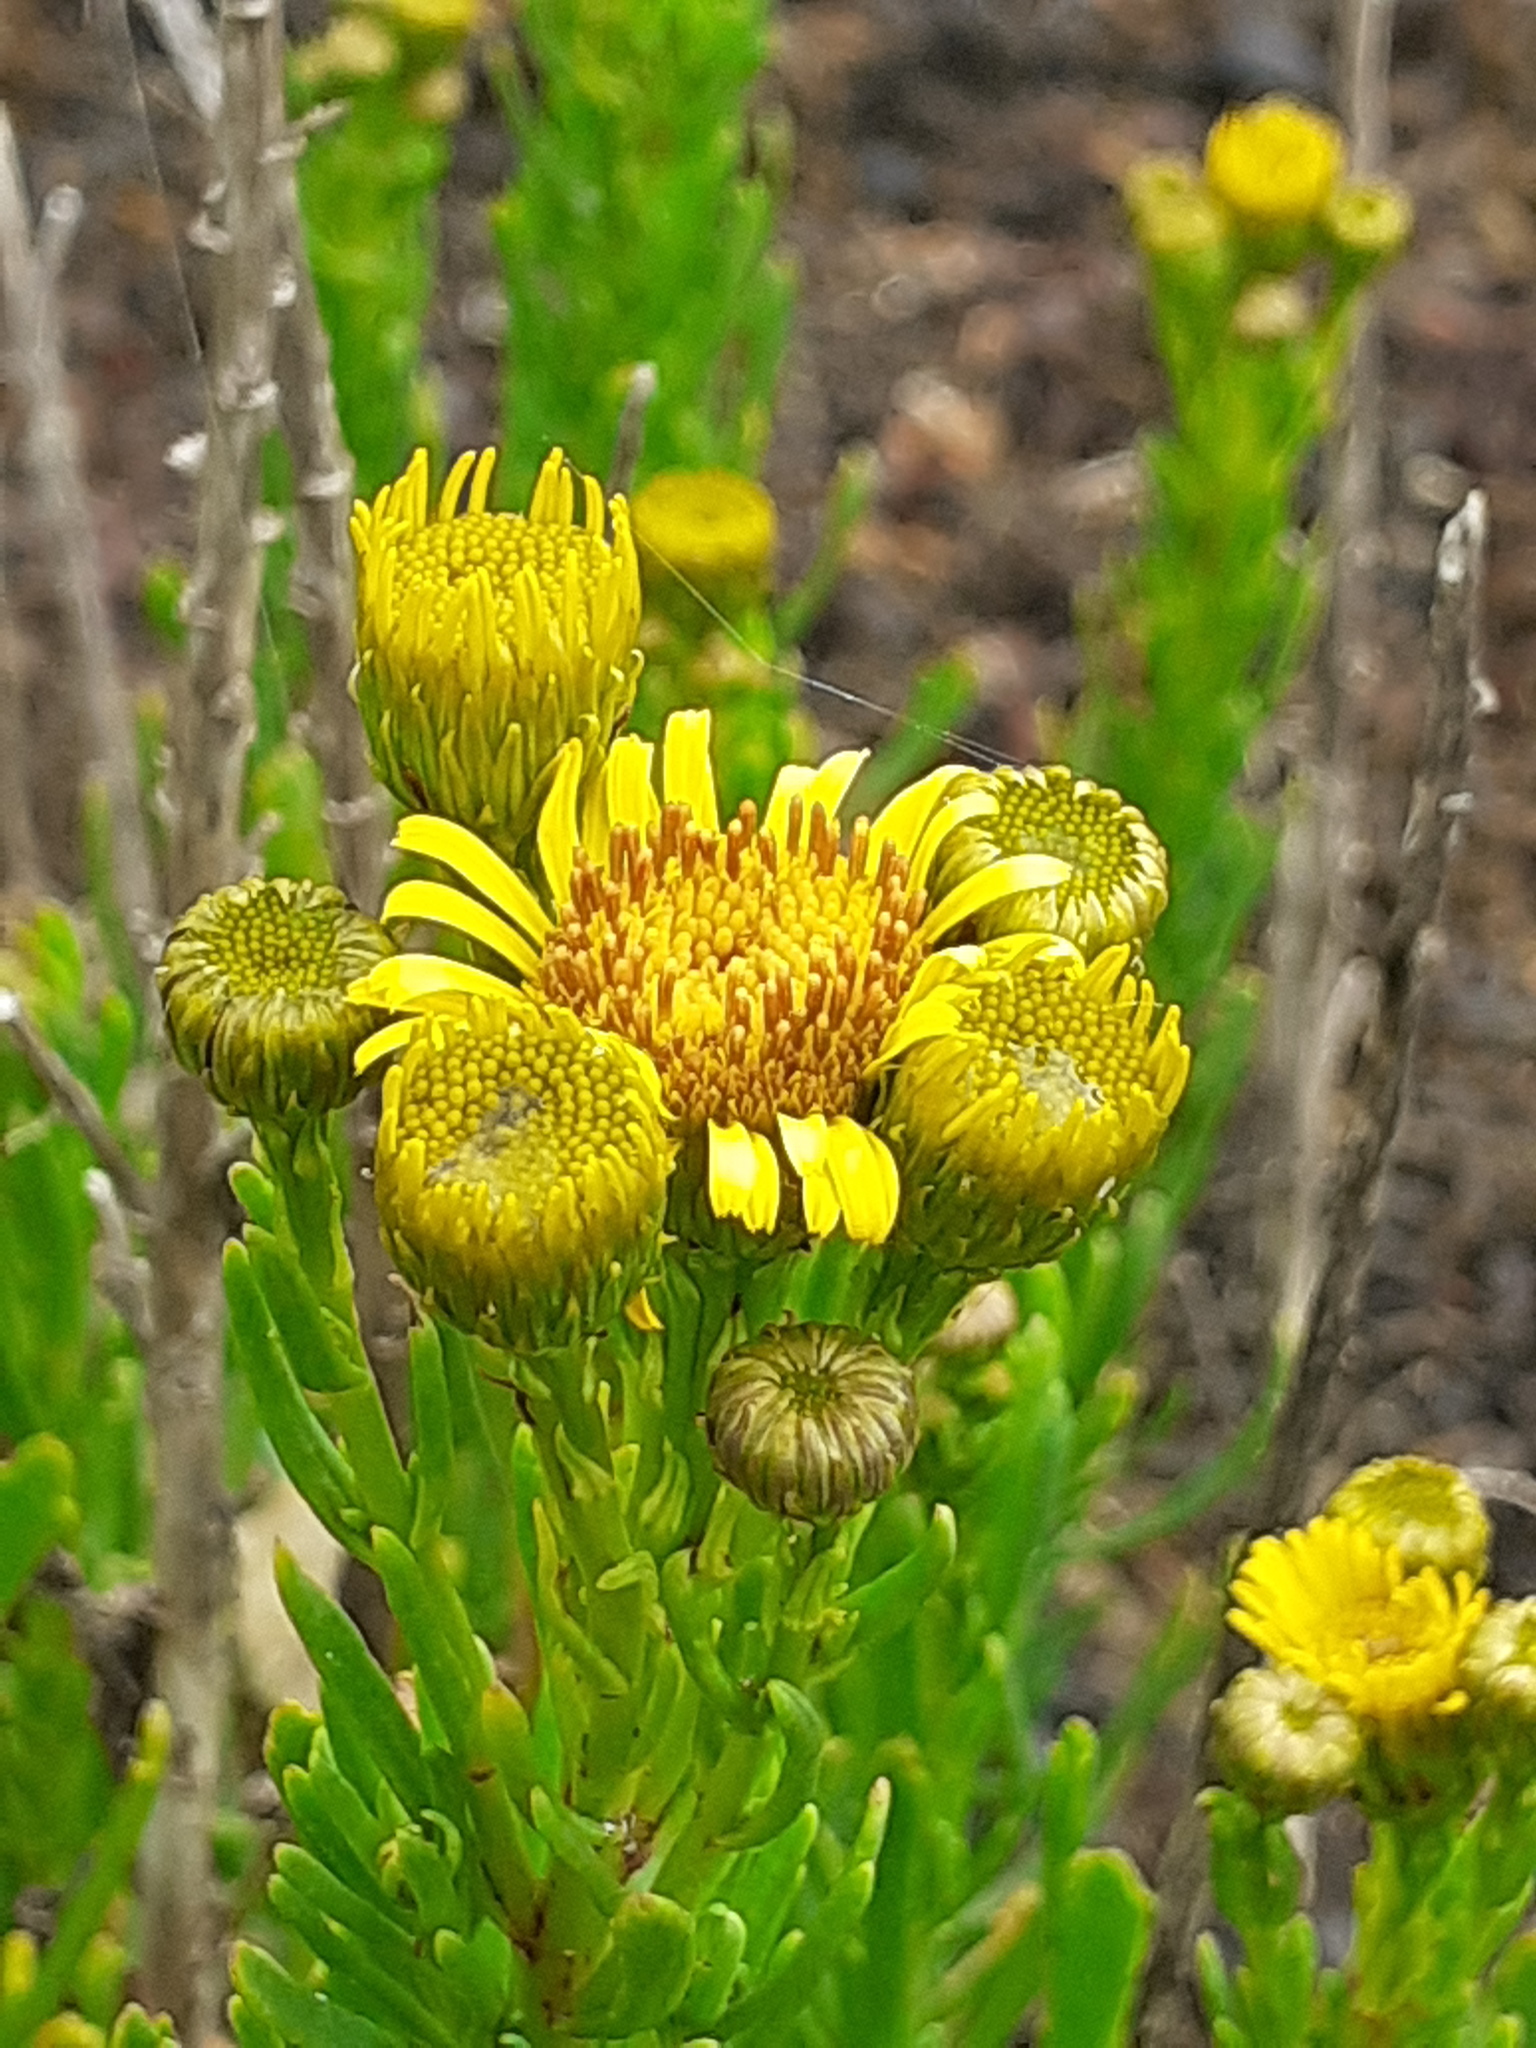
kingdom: Plantae
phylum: Tracheophyta
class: Magnoliopsida
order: Asterales
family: Asteraceae
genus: Limbarda
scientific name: Limbarda crithmoides
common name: Golden samphire
